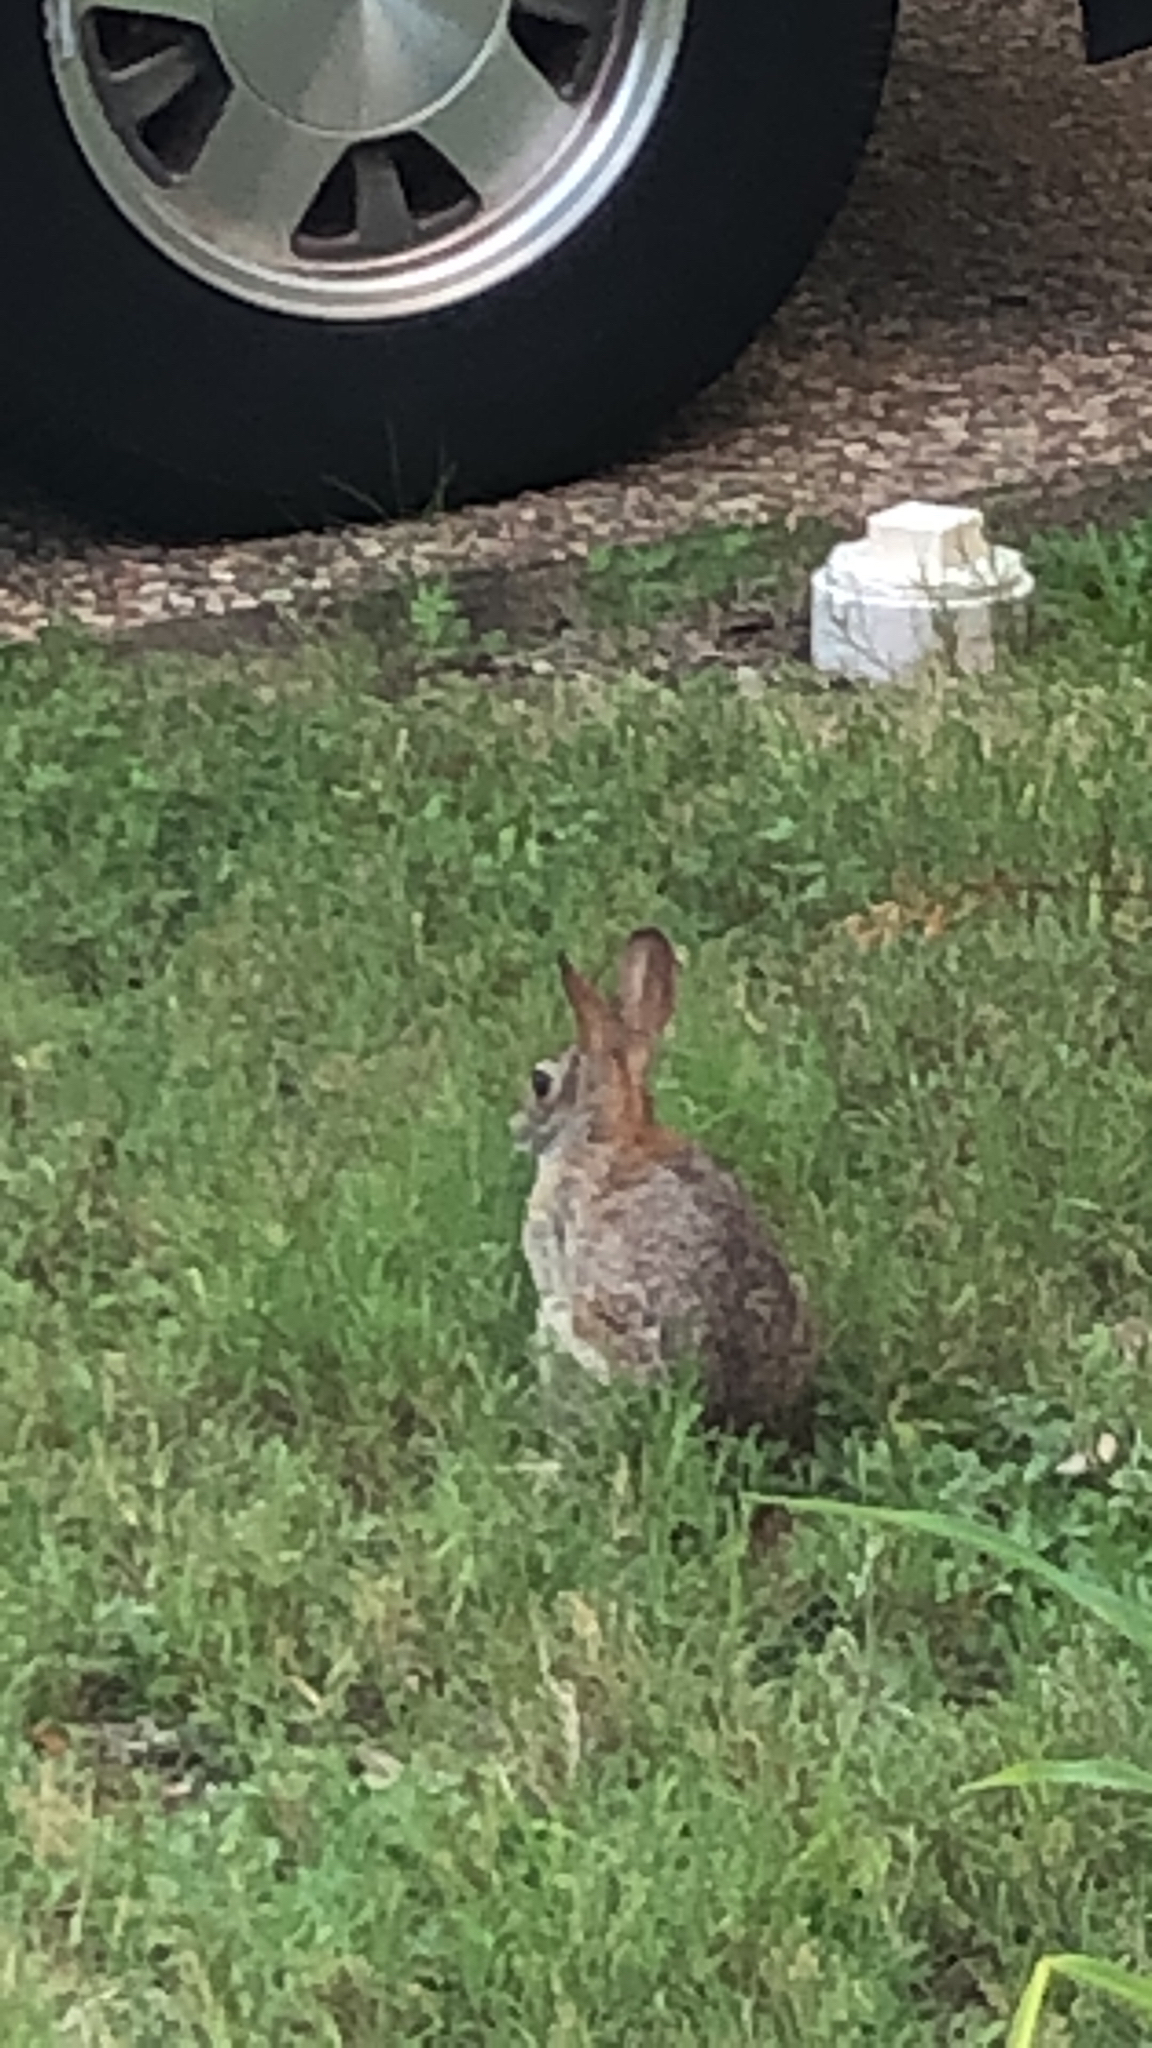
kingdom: Animalia
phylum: Chordata
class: Mammalia
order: Lagomorpha
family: Leporidae
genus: Sylvilagus
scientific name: Sylvilagus floridanus
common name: Eastern cottontail
